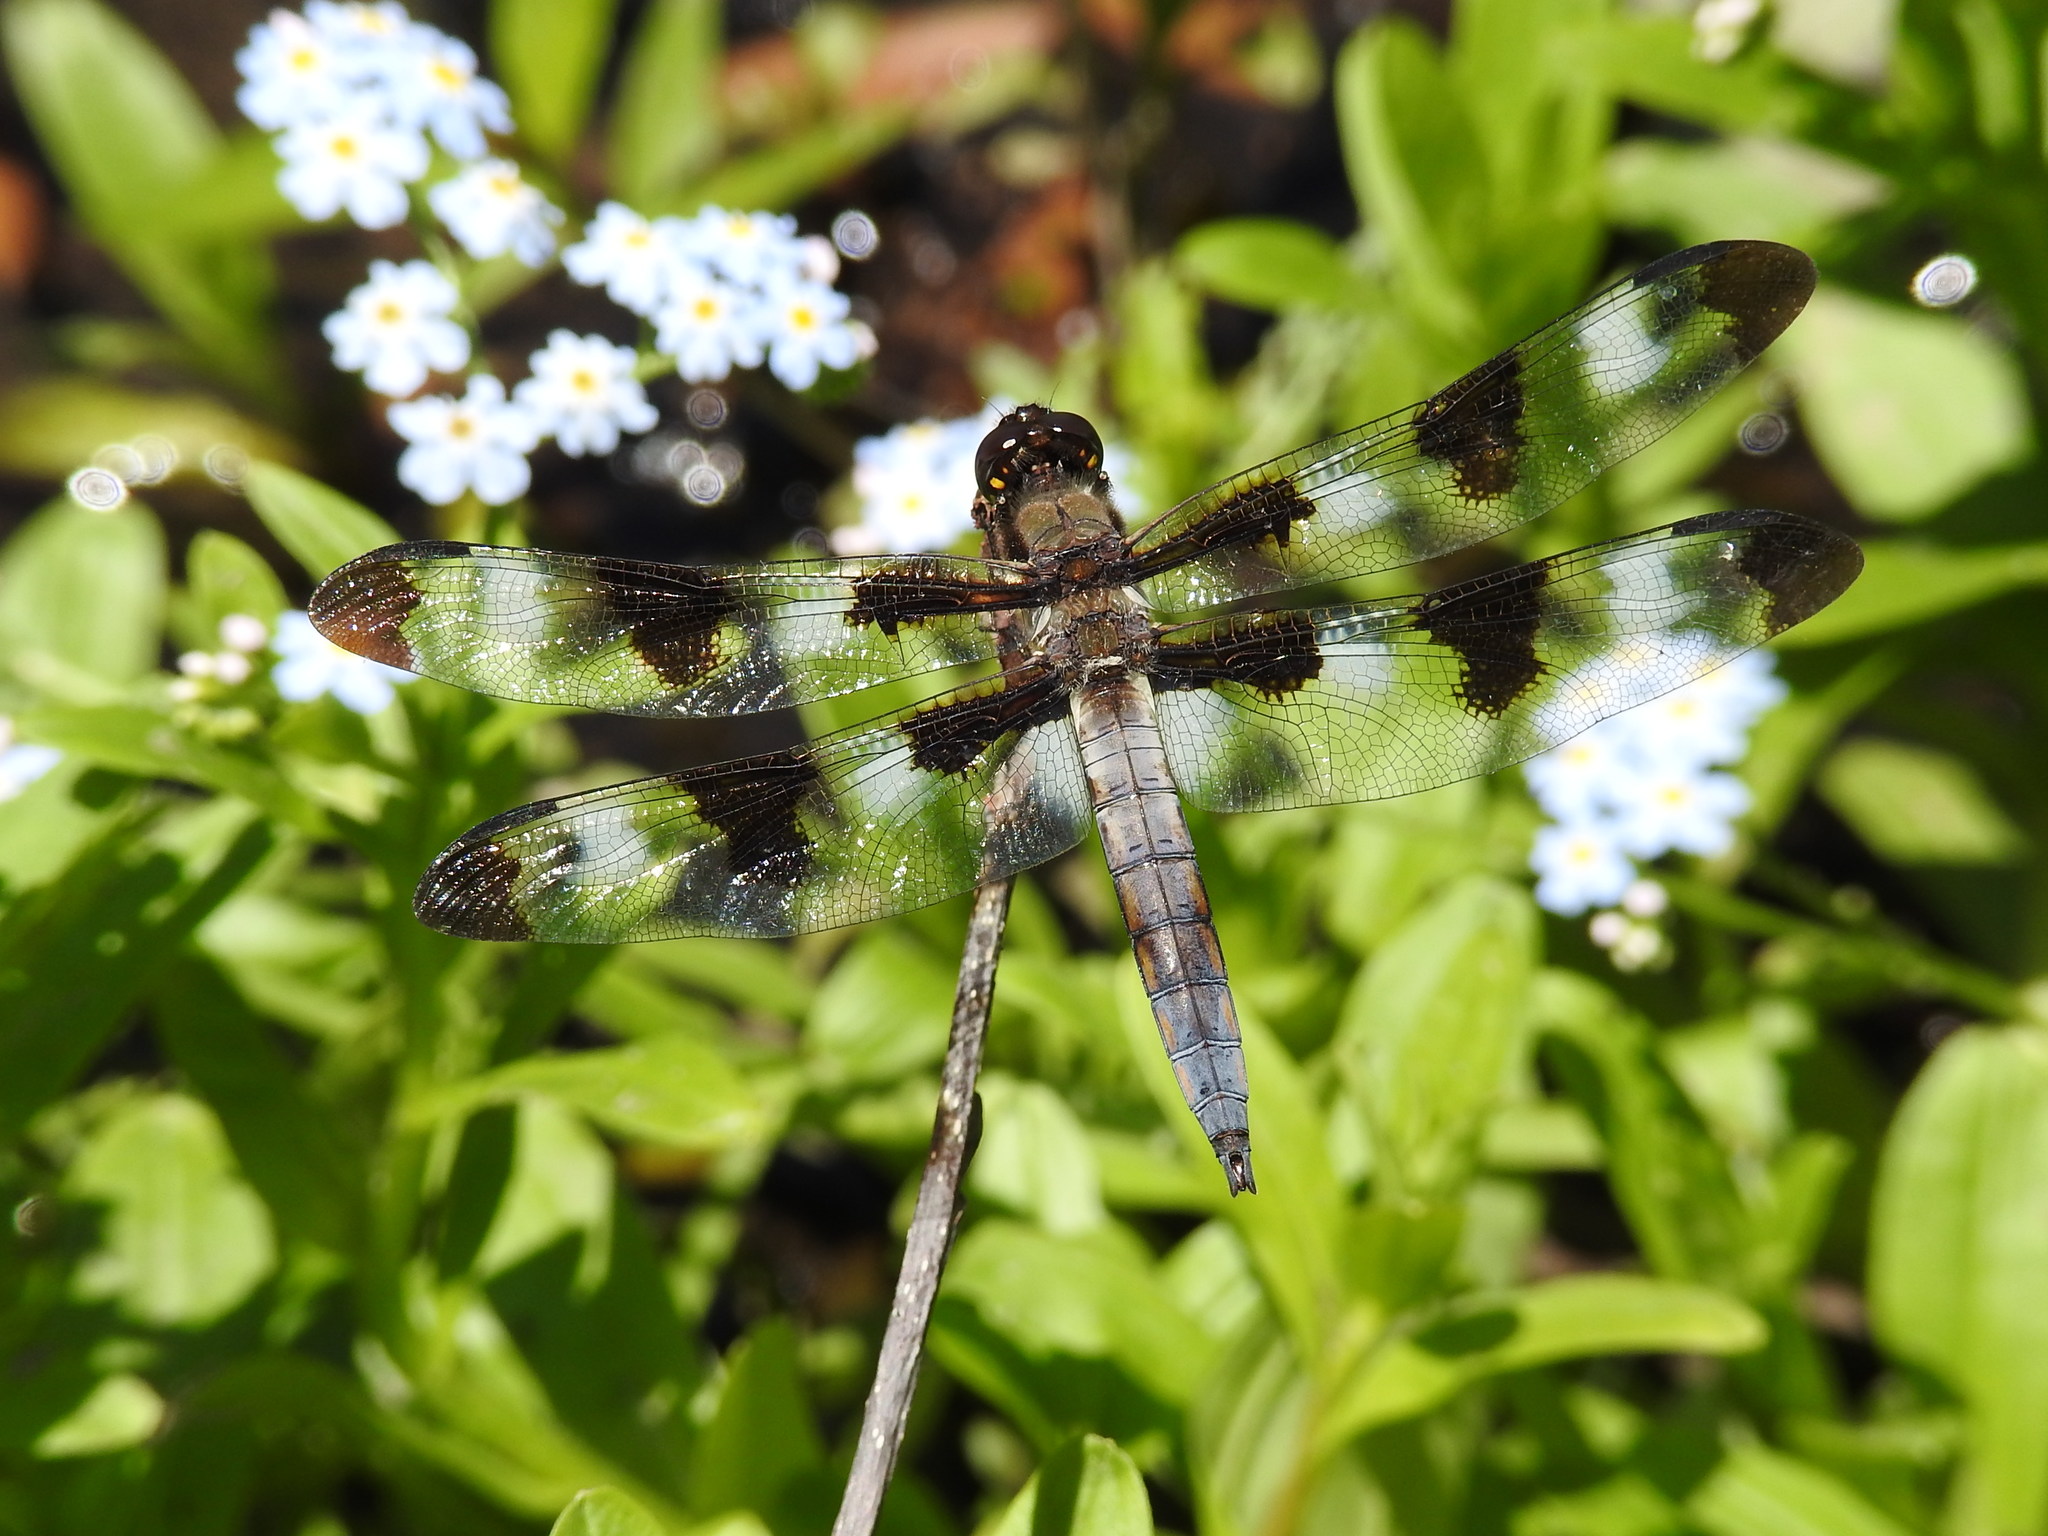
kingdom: Animalia
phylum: Arthropoda
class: Insecta
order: Odonata
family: Libellulidae
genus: Libellula
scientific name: Libellula pulchella
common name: Twelve-spotted skimmer
